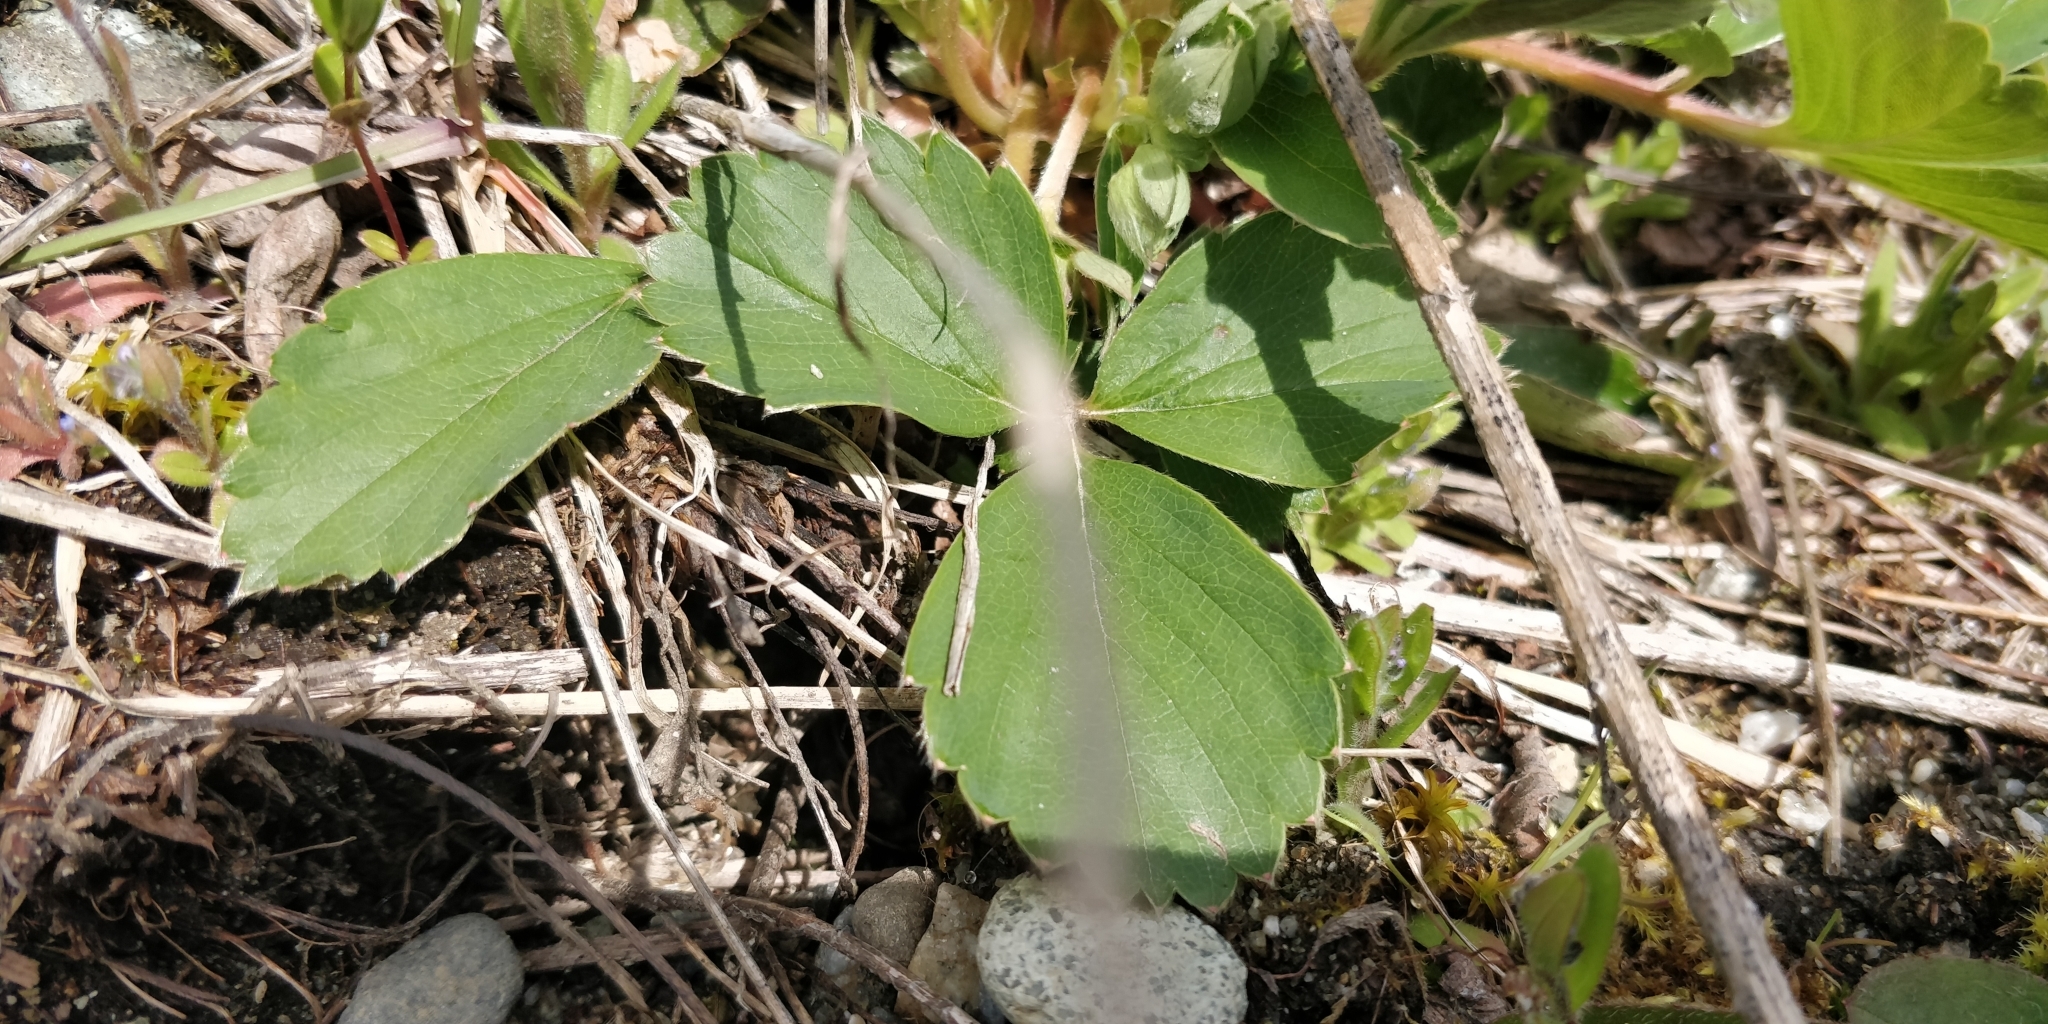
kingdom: Plantae
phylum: Tracheophyta
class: Magnoliopsida
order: Rosales
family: Rosaceae
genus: Fragaria
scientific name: Fragaria virginiana
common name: Thickleaved wild strawberry
